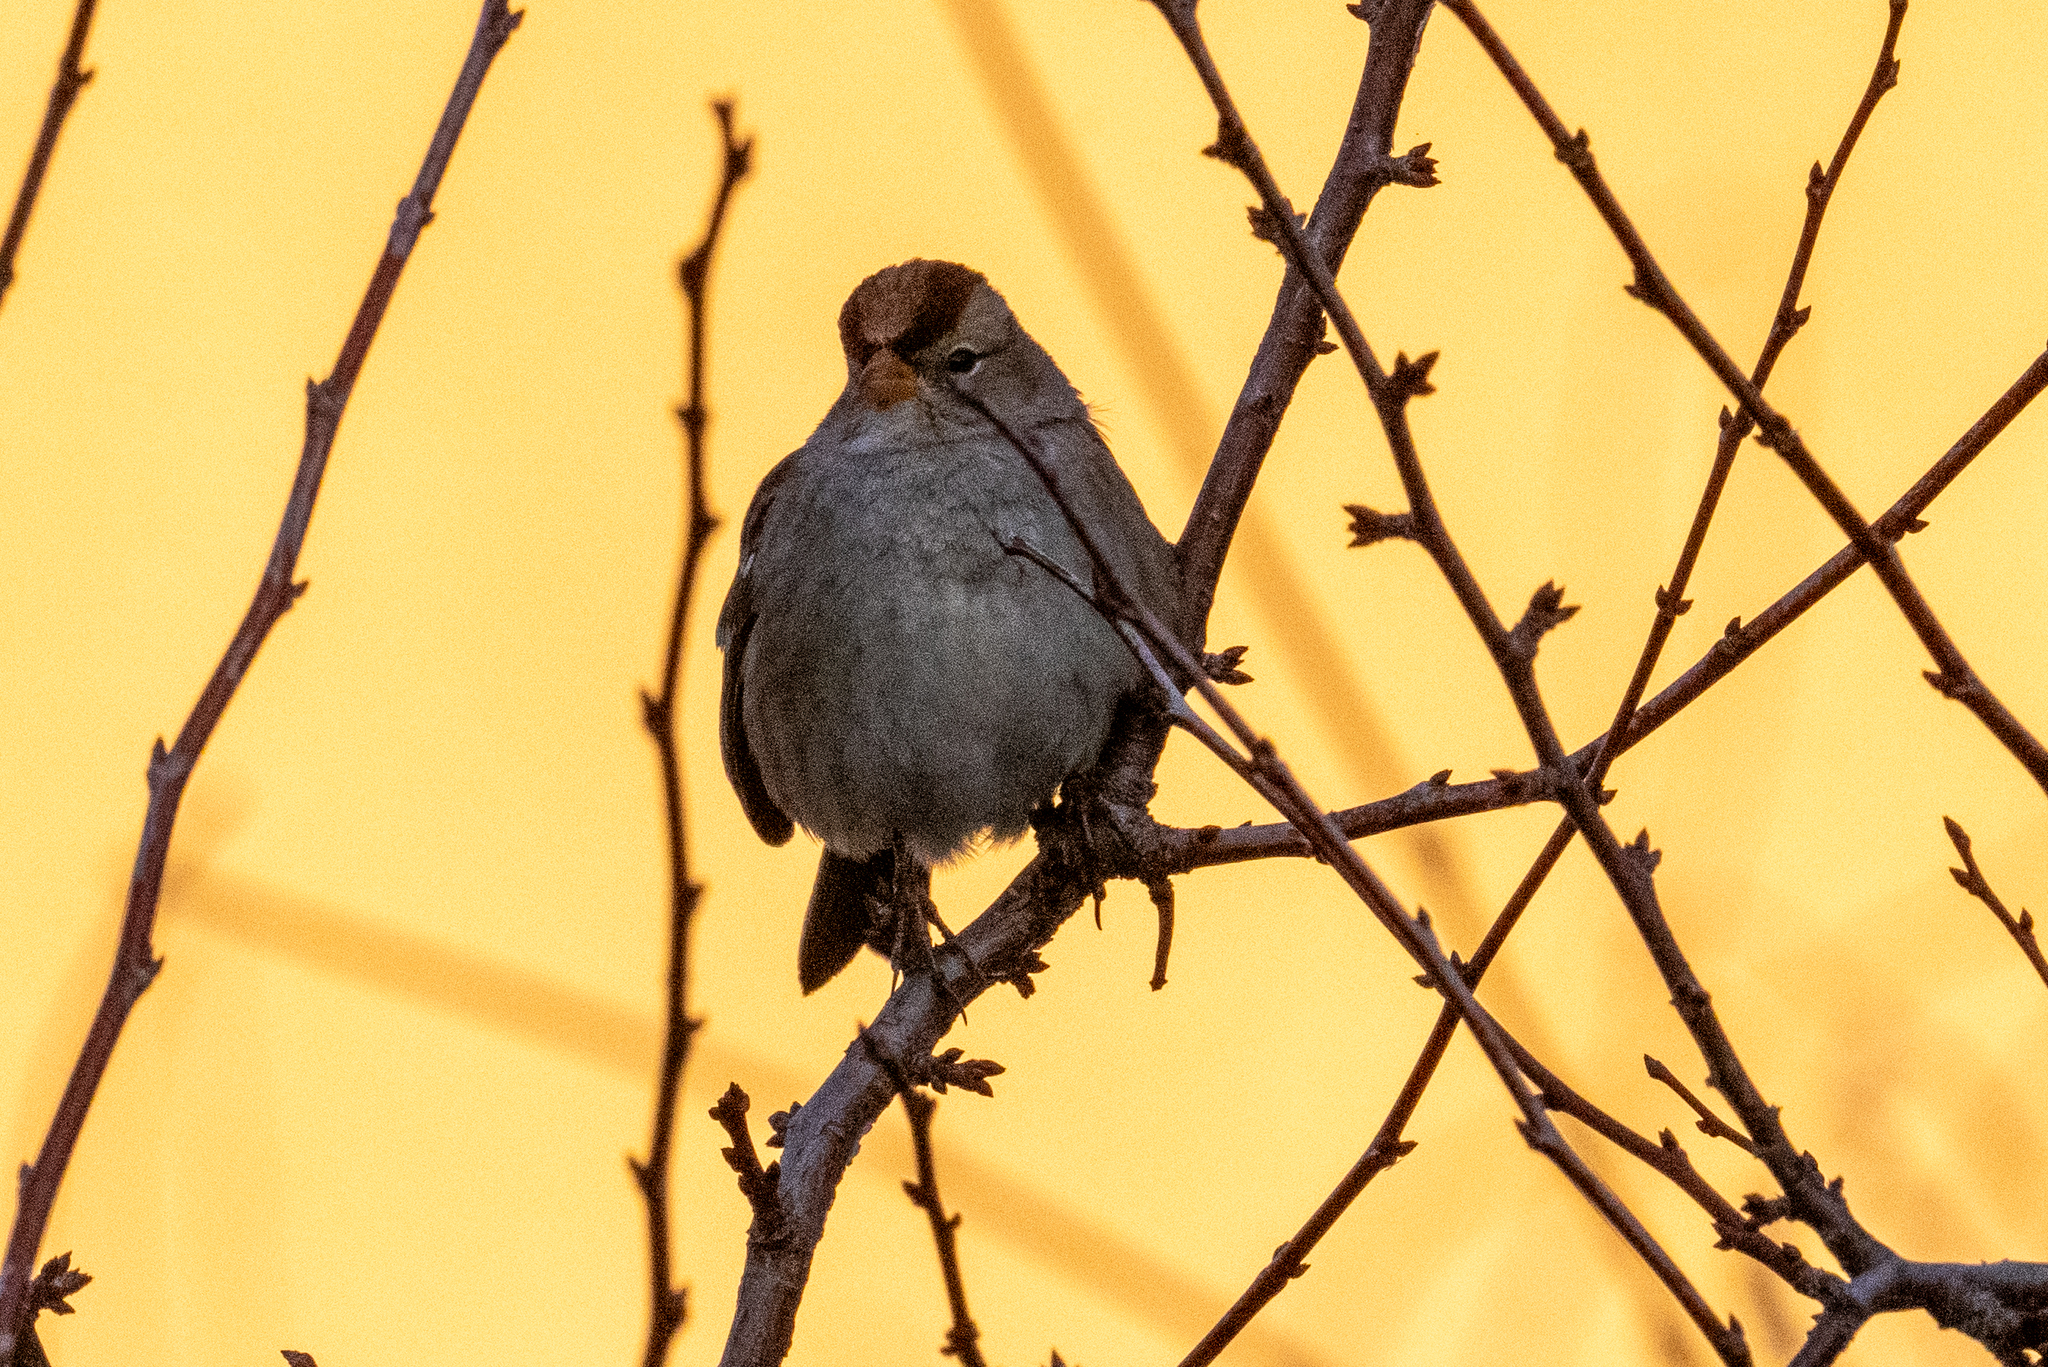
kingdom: Animalia
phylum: Chordata
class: Aves
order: Passeriformes
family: Passerellidae
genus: Zonotrichia
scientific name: Zonotrichia atricapilla
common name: Golden-crowned sparrow
